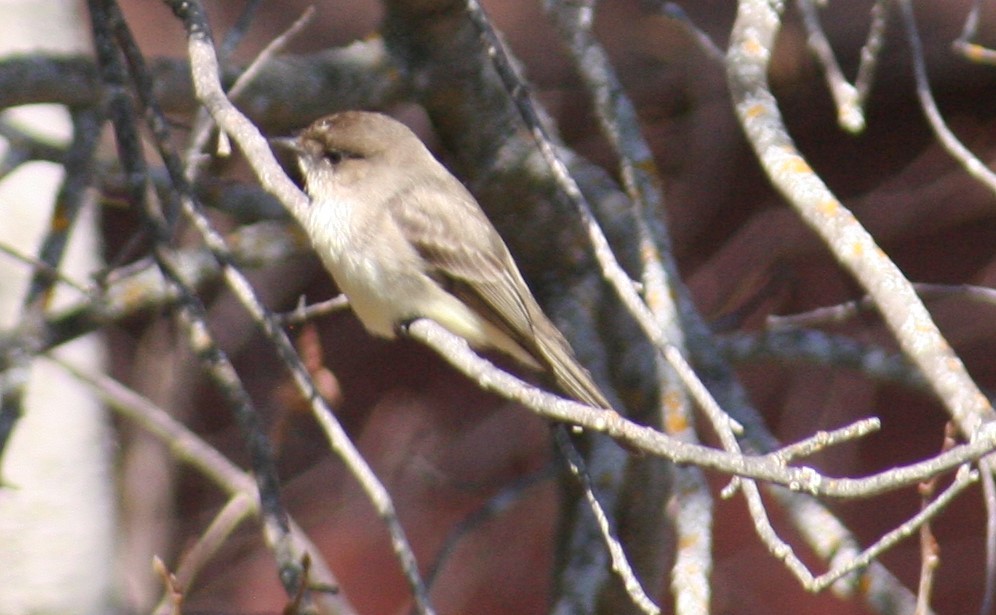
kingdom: Animalia
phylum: Chordata
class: Aves
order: Passeriformes
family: Tyrannidae
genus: Sayornis
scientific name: Sayornis phoebe
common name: Eastern phoebe
